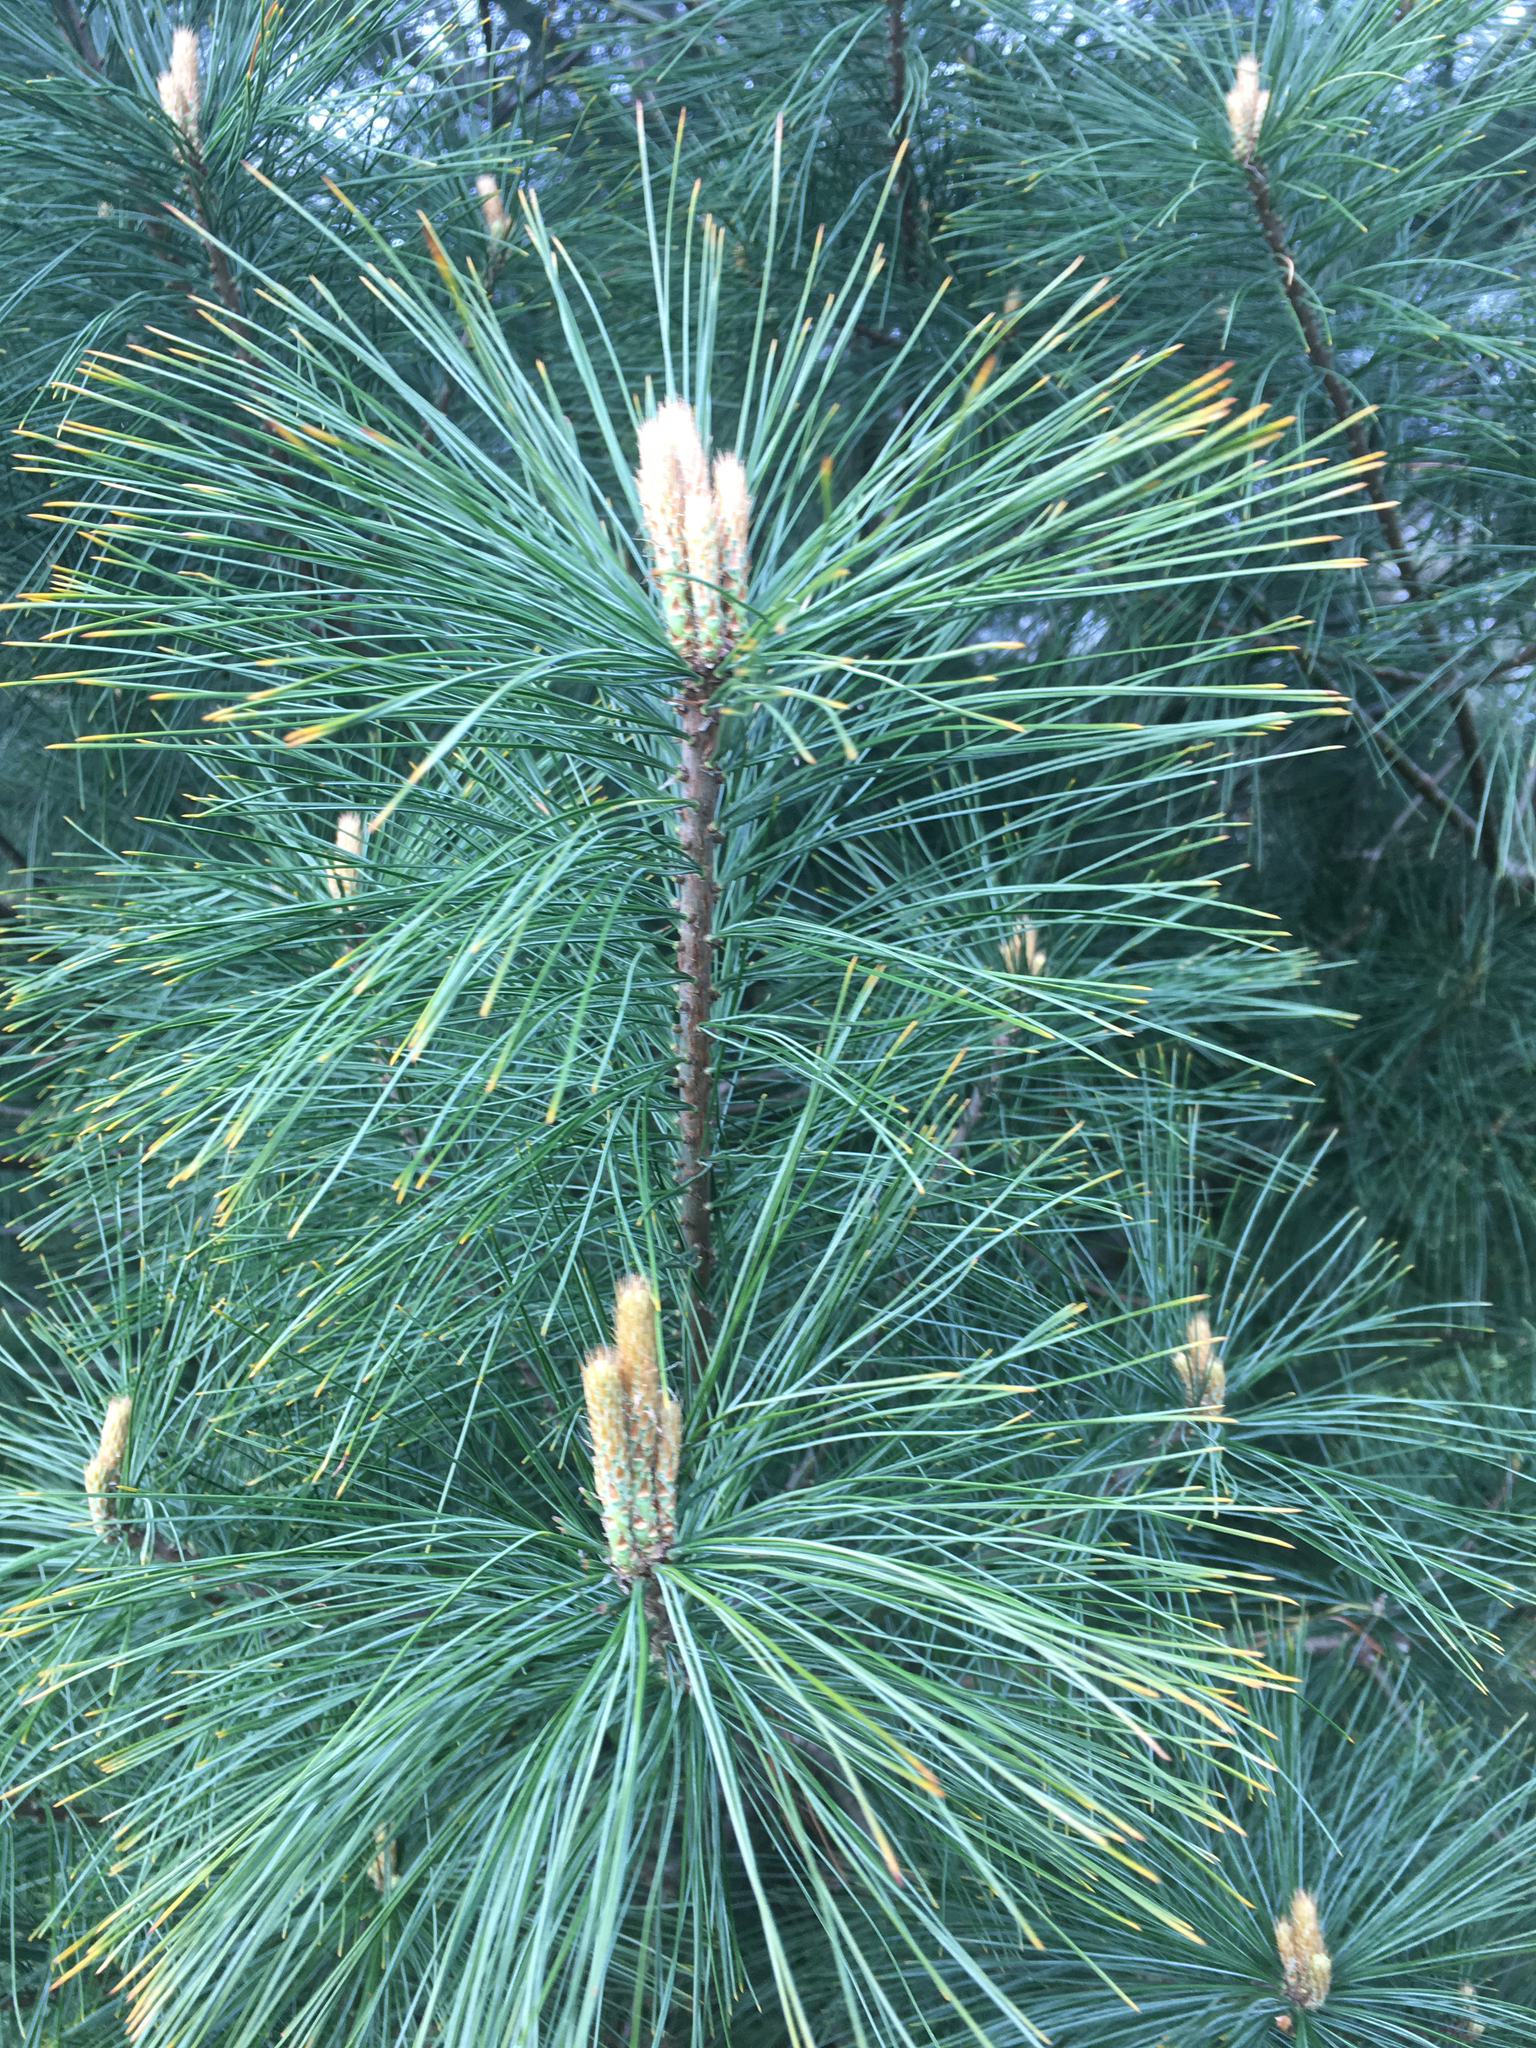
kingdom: Plantae
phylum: Tracheophyta
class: Pinopsida
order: Pinales
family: Pinaceae
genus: Pinus
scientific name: Pinus strobus
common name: Weymouth pine
